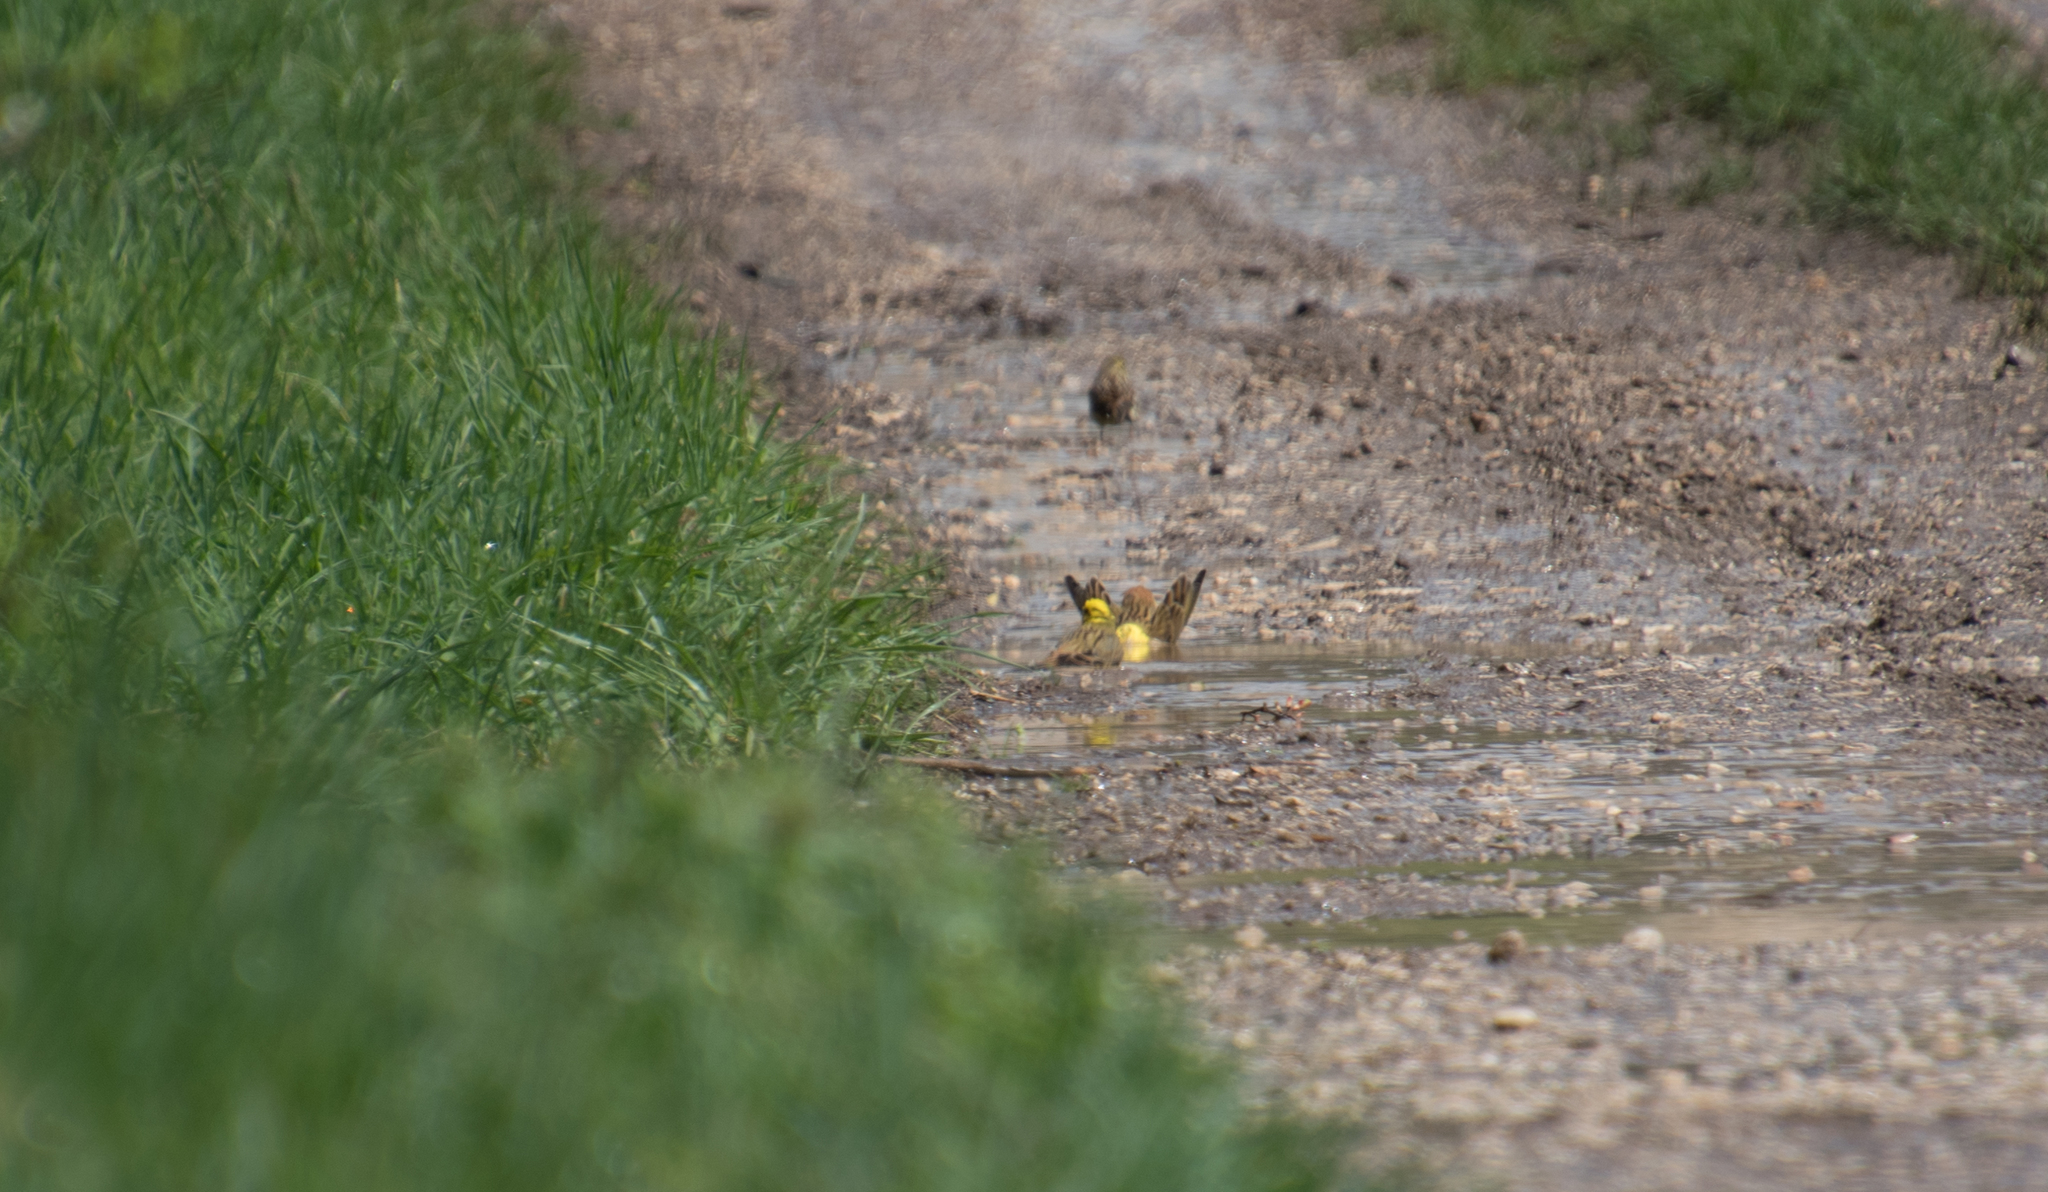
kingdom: Animalia
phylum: Chordata
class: Aves
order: Passeriformes
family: Emberizidae
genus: Emberiza
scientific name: Emberiza citrinella
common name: Yellowhammer
